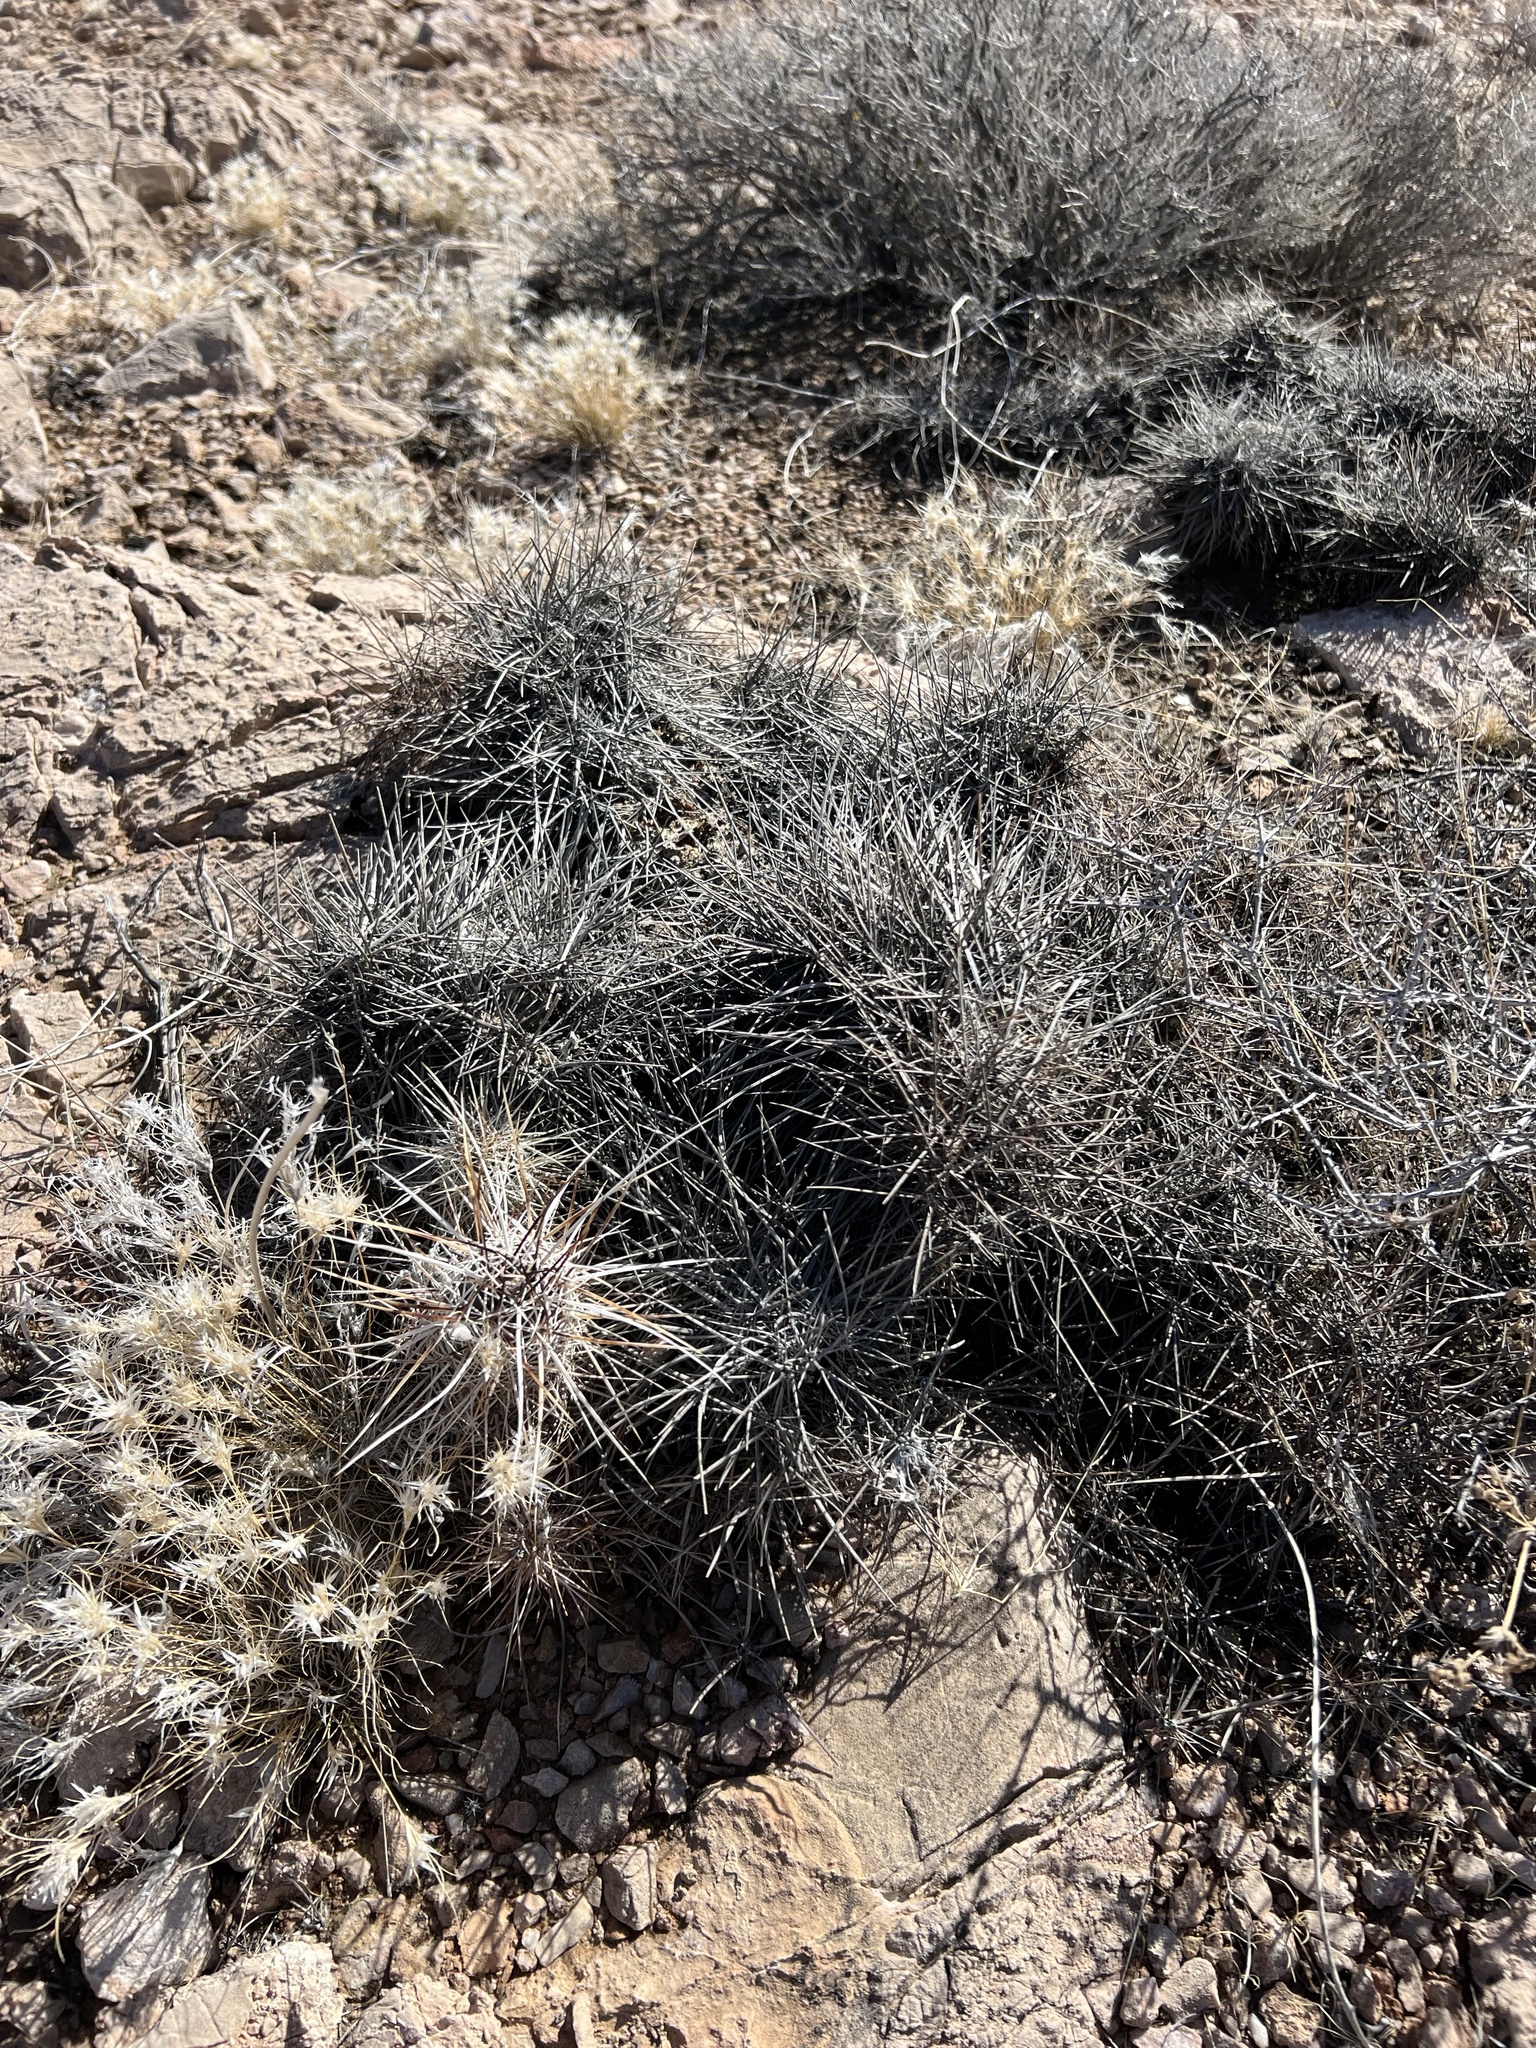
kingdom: Plantae
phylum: Tracheophyta
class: Magnoliopsida
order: Caryophyllales
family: Cactaceae
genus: Echinocereus
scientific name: Echinocereus engelmannii
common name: Engelmann's hedgehog cactus
